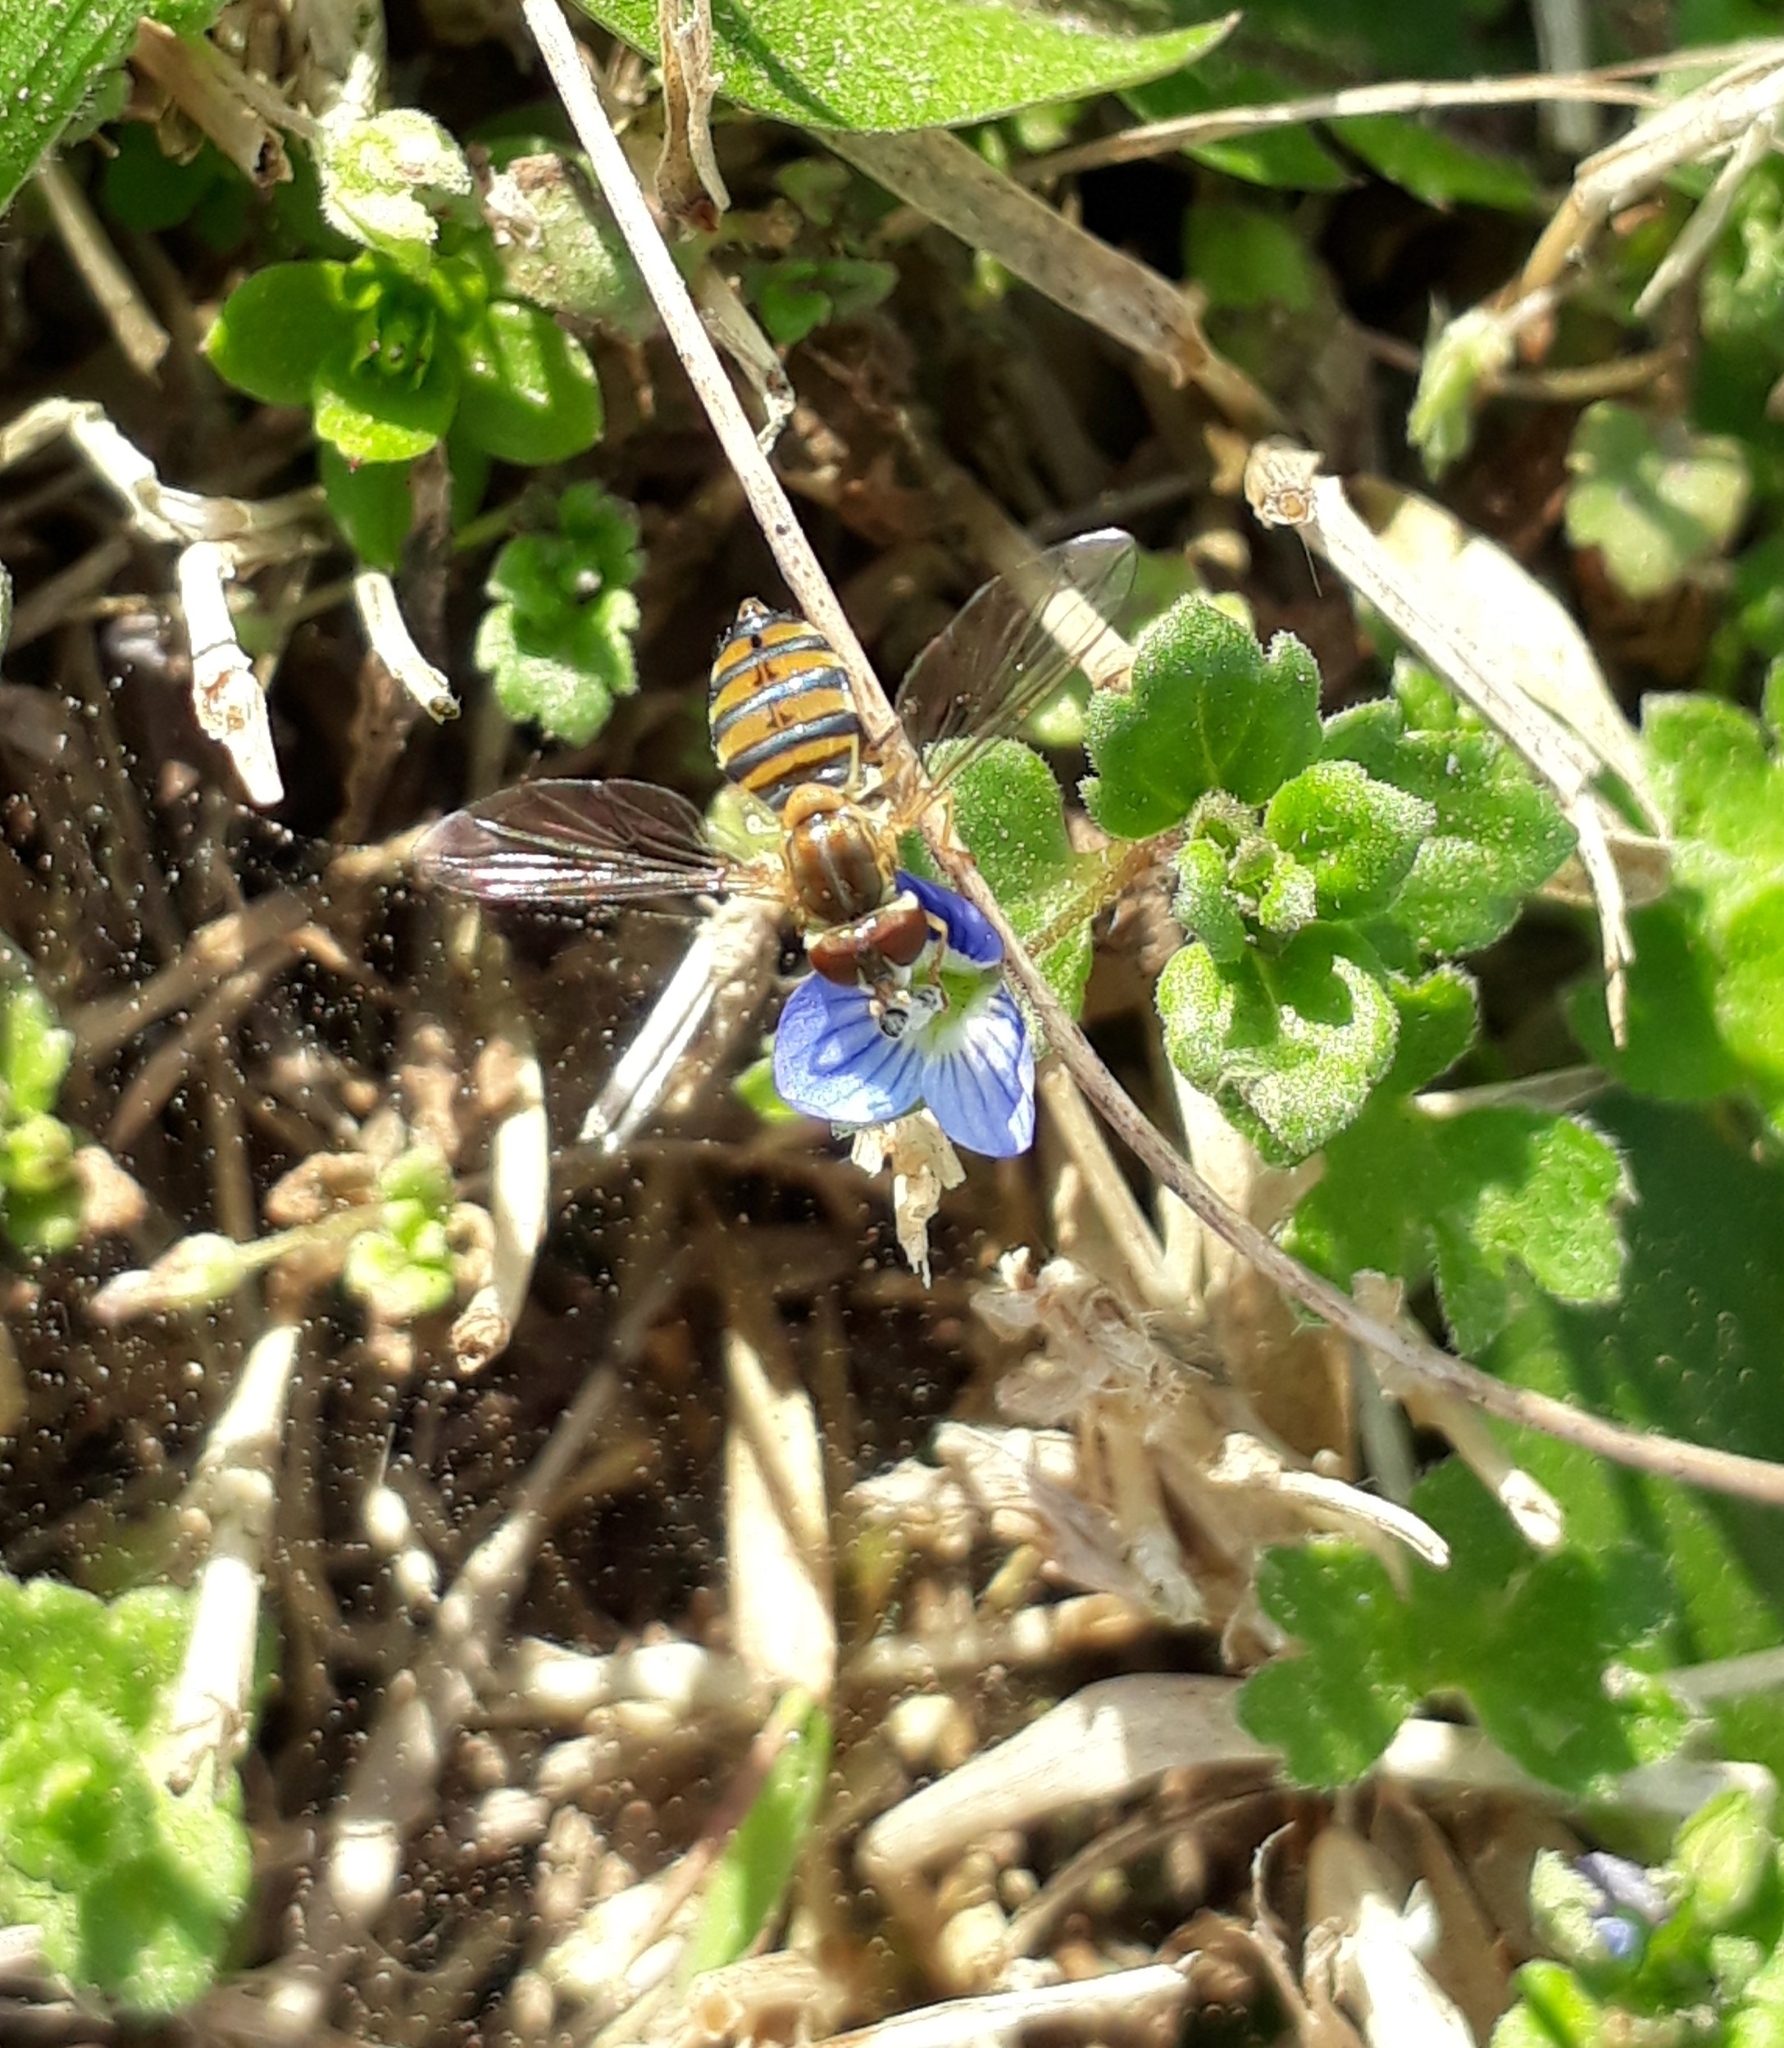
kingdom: Animalia
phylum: Arthropoda
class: Insecta
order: Diptera
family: Syrphidae
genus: Toxomerus
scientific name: Toxomerus
